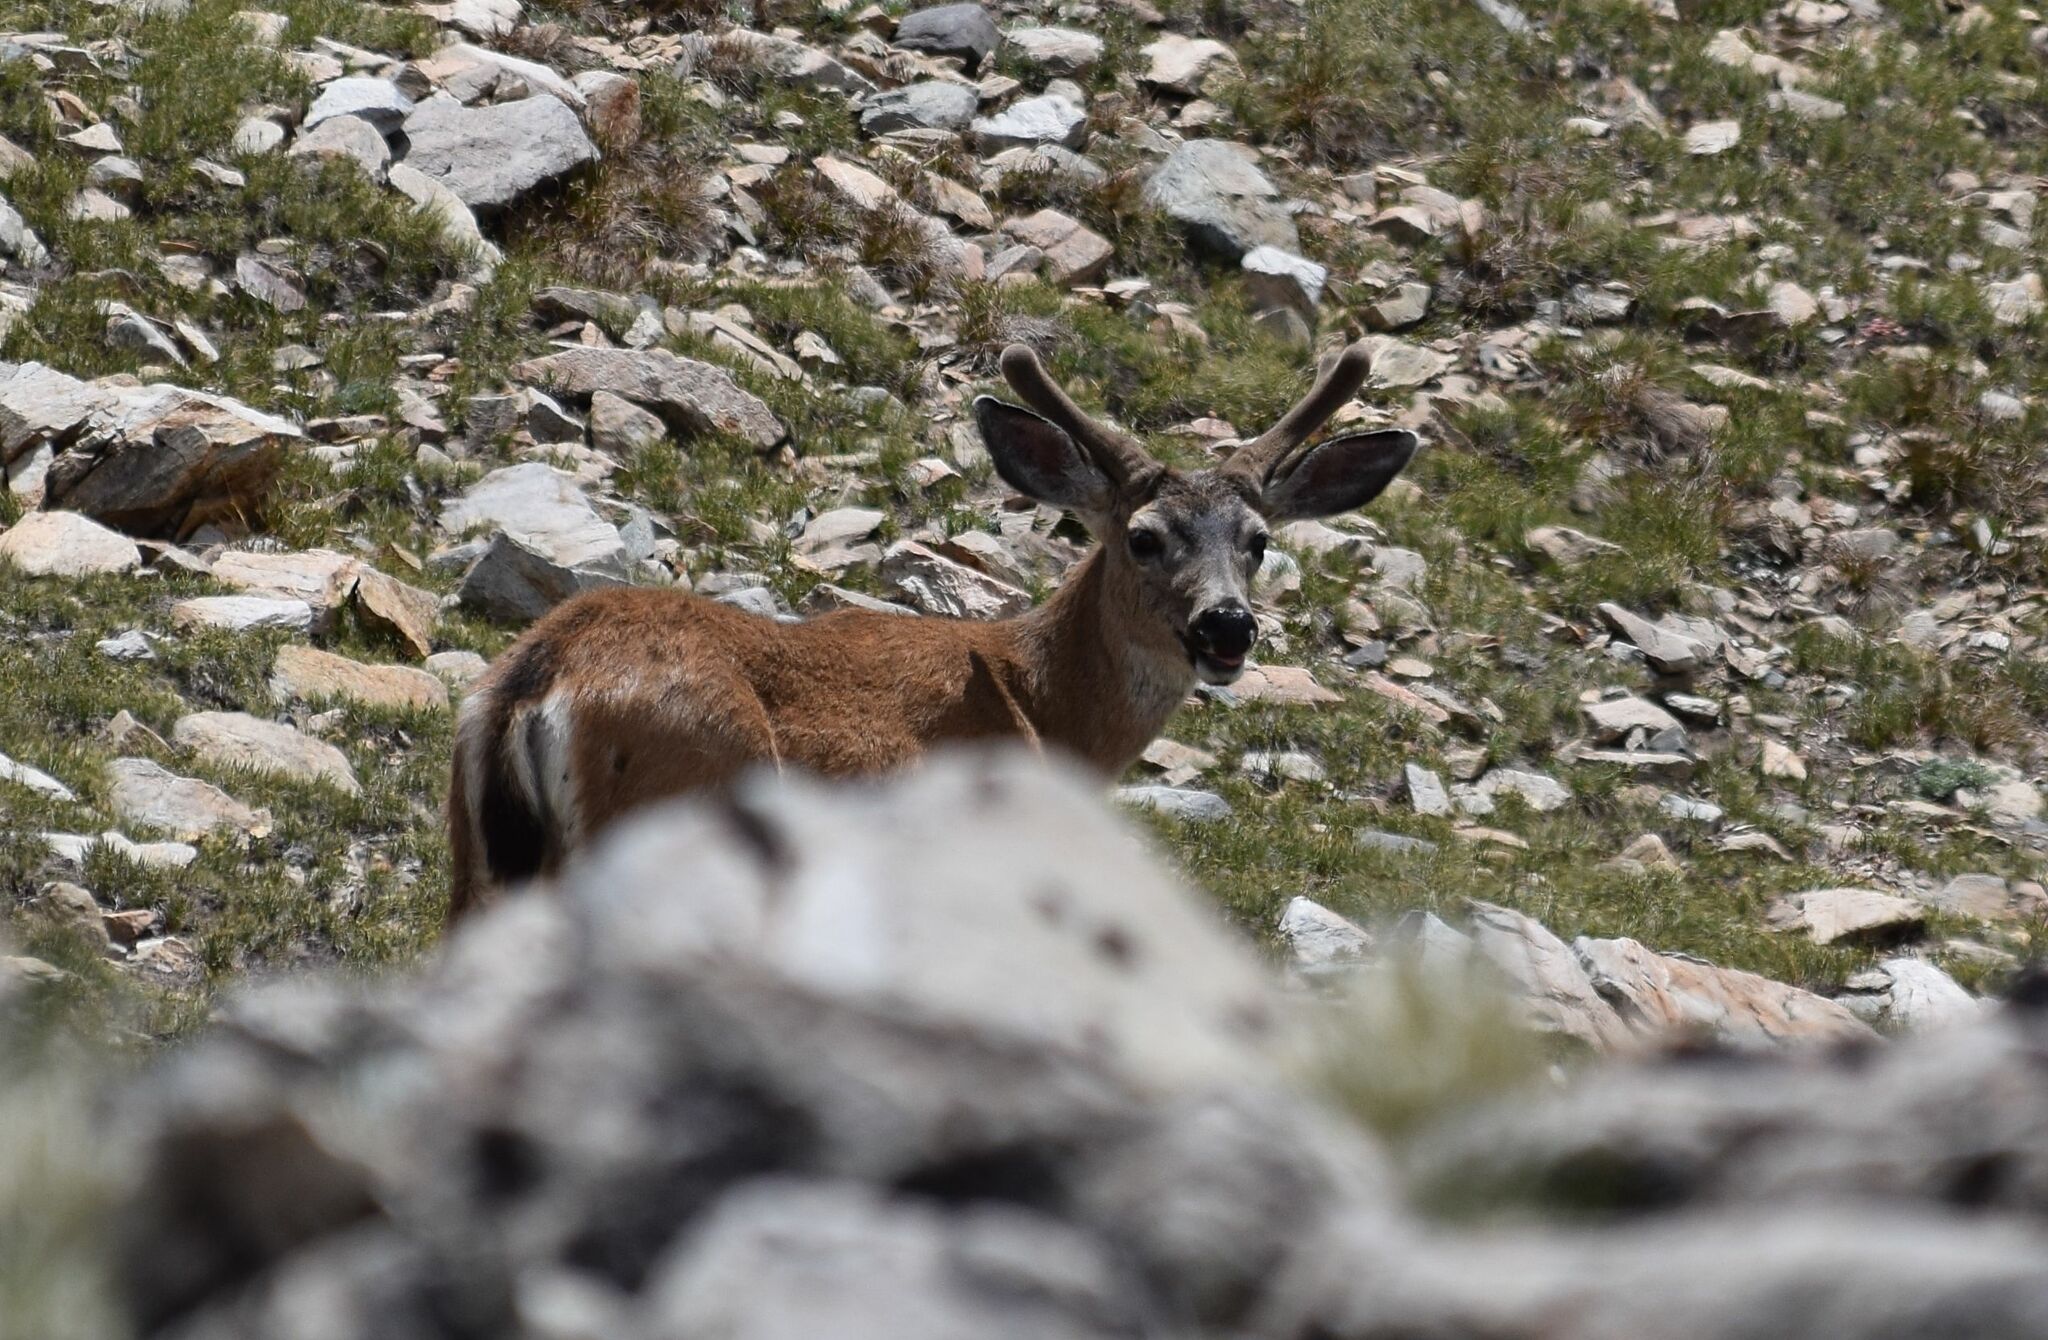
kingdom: Animalia
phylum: Chordata
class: Mammalia
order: Artiodactyla
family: Cervidae
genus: Odocoileus
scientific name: Odocoileus hemionus
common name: Mule deer
